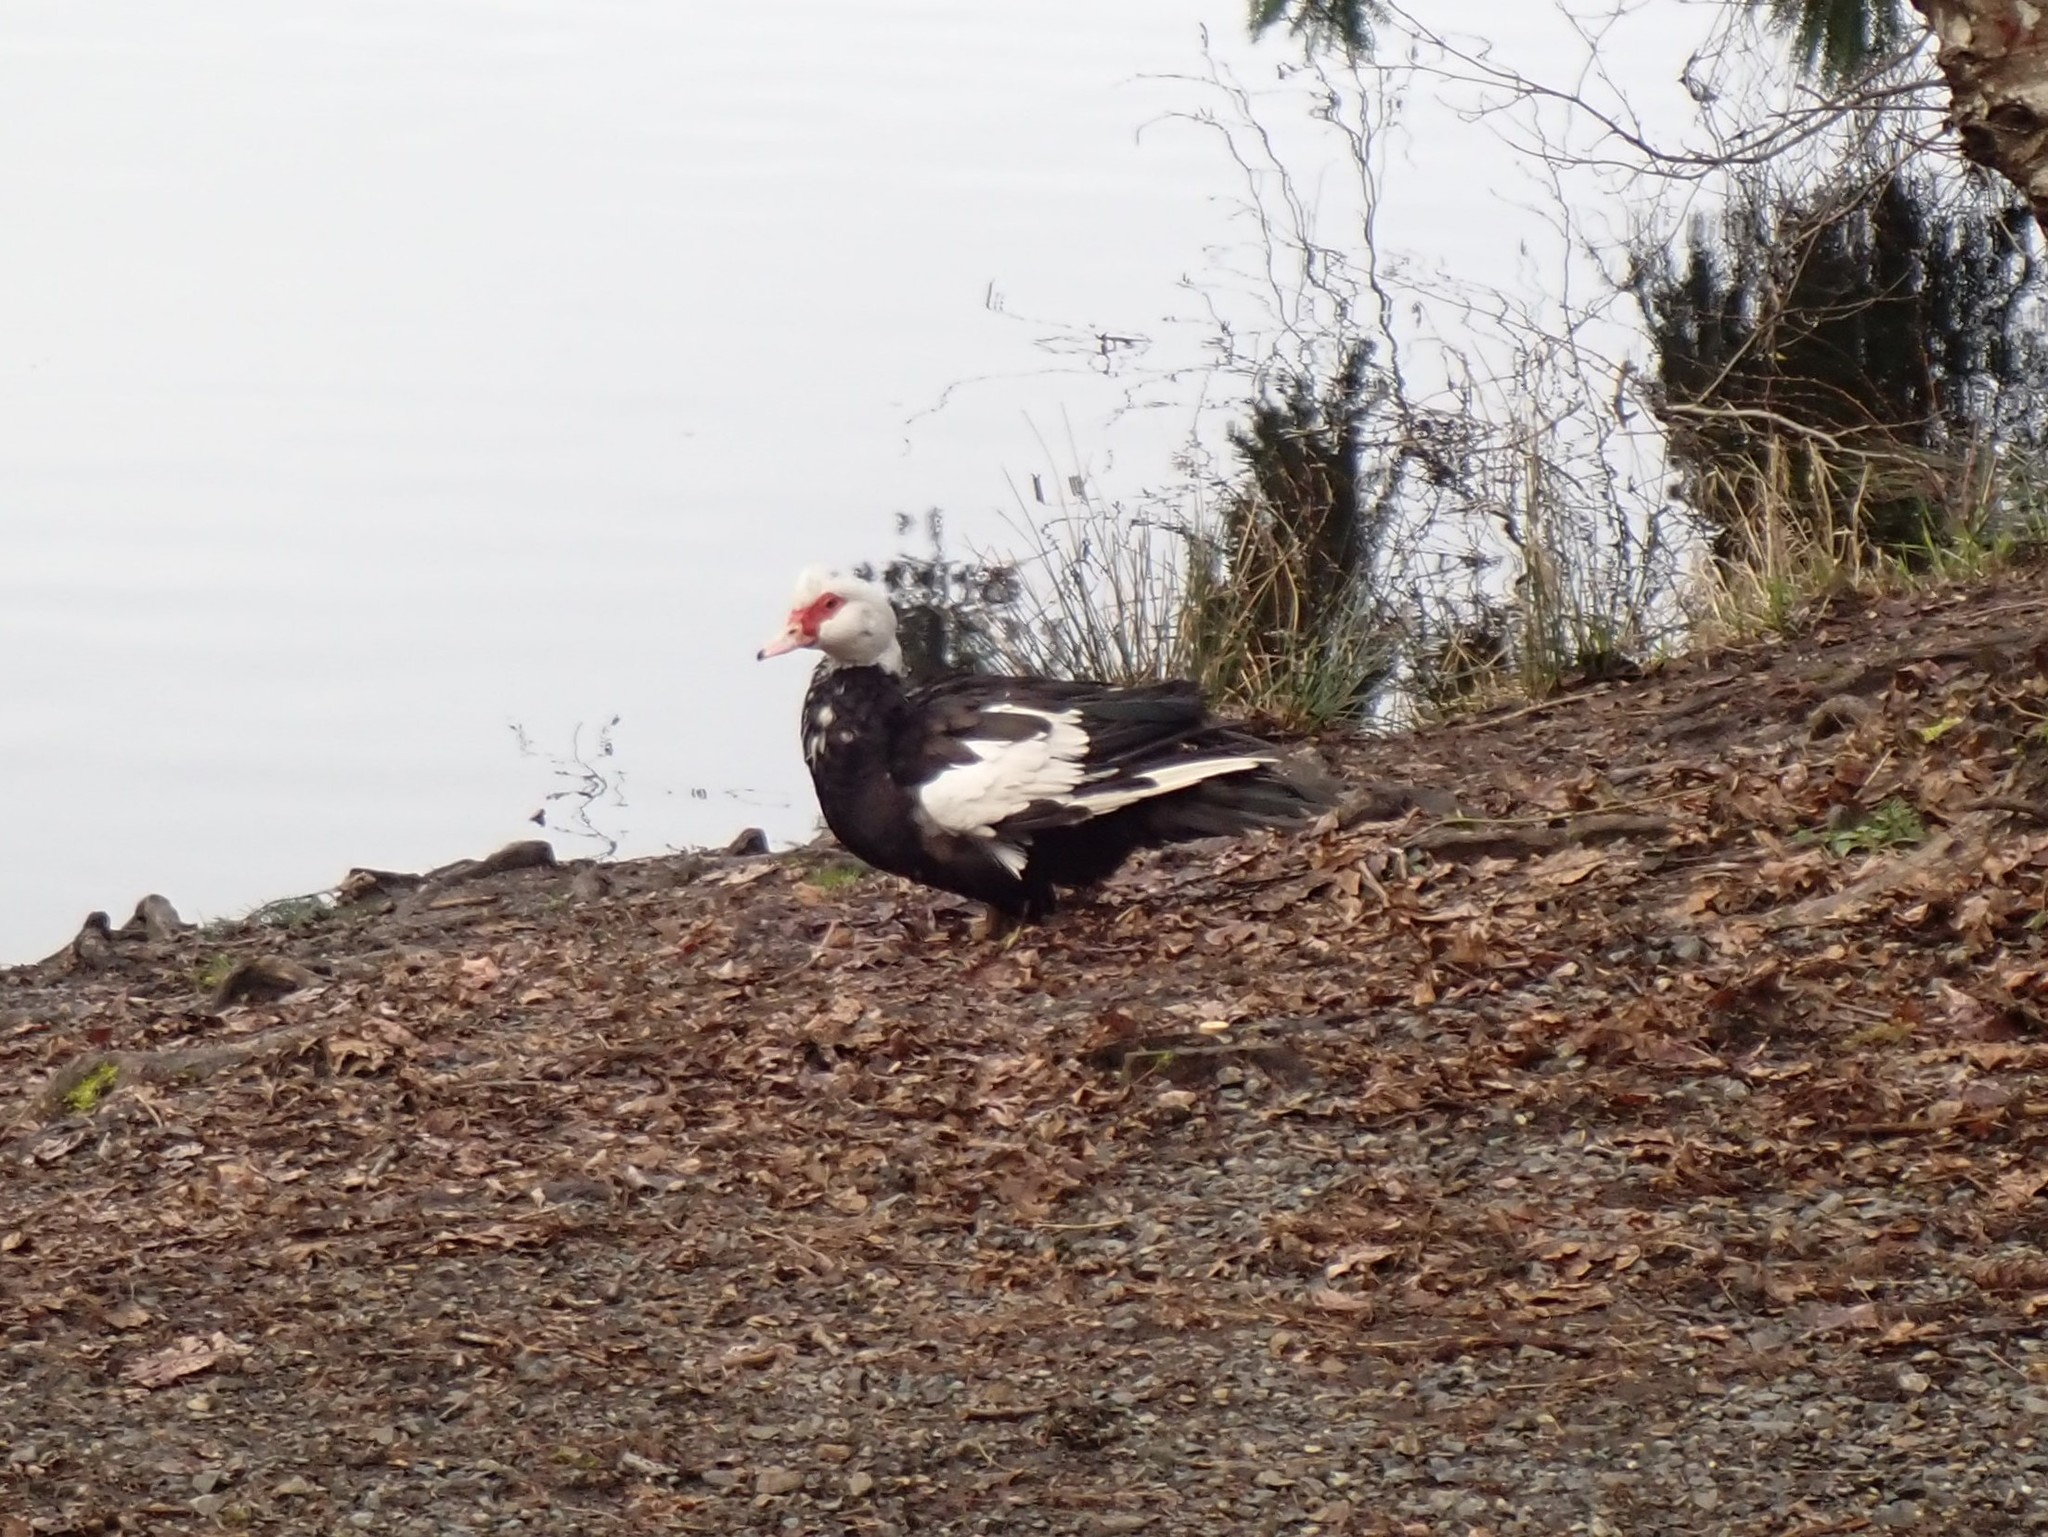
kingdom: Animalia
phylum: Chordata
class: Aves
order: Anseriformes
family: Anatidae
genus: Cairina
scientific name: Cairina moschata
